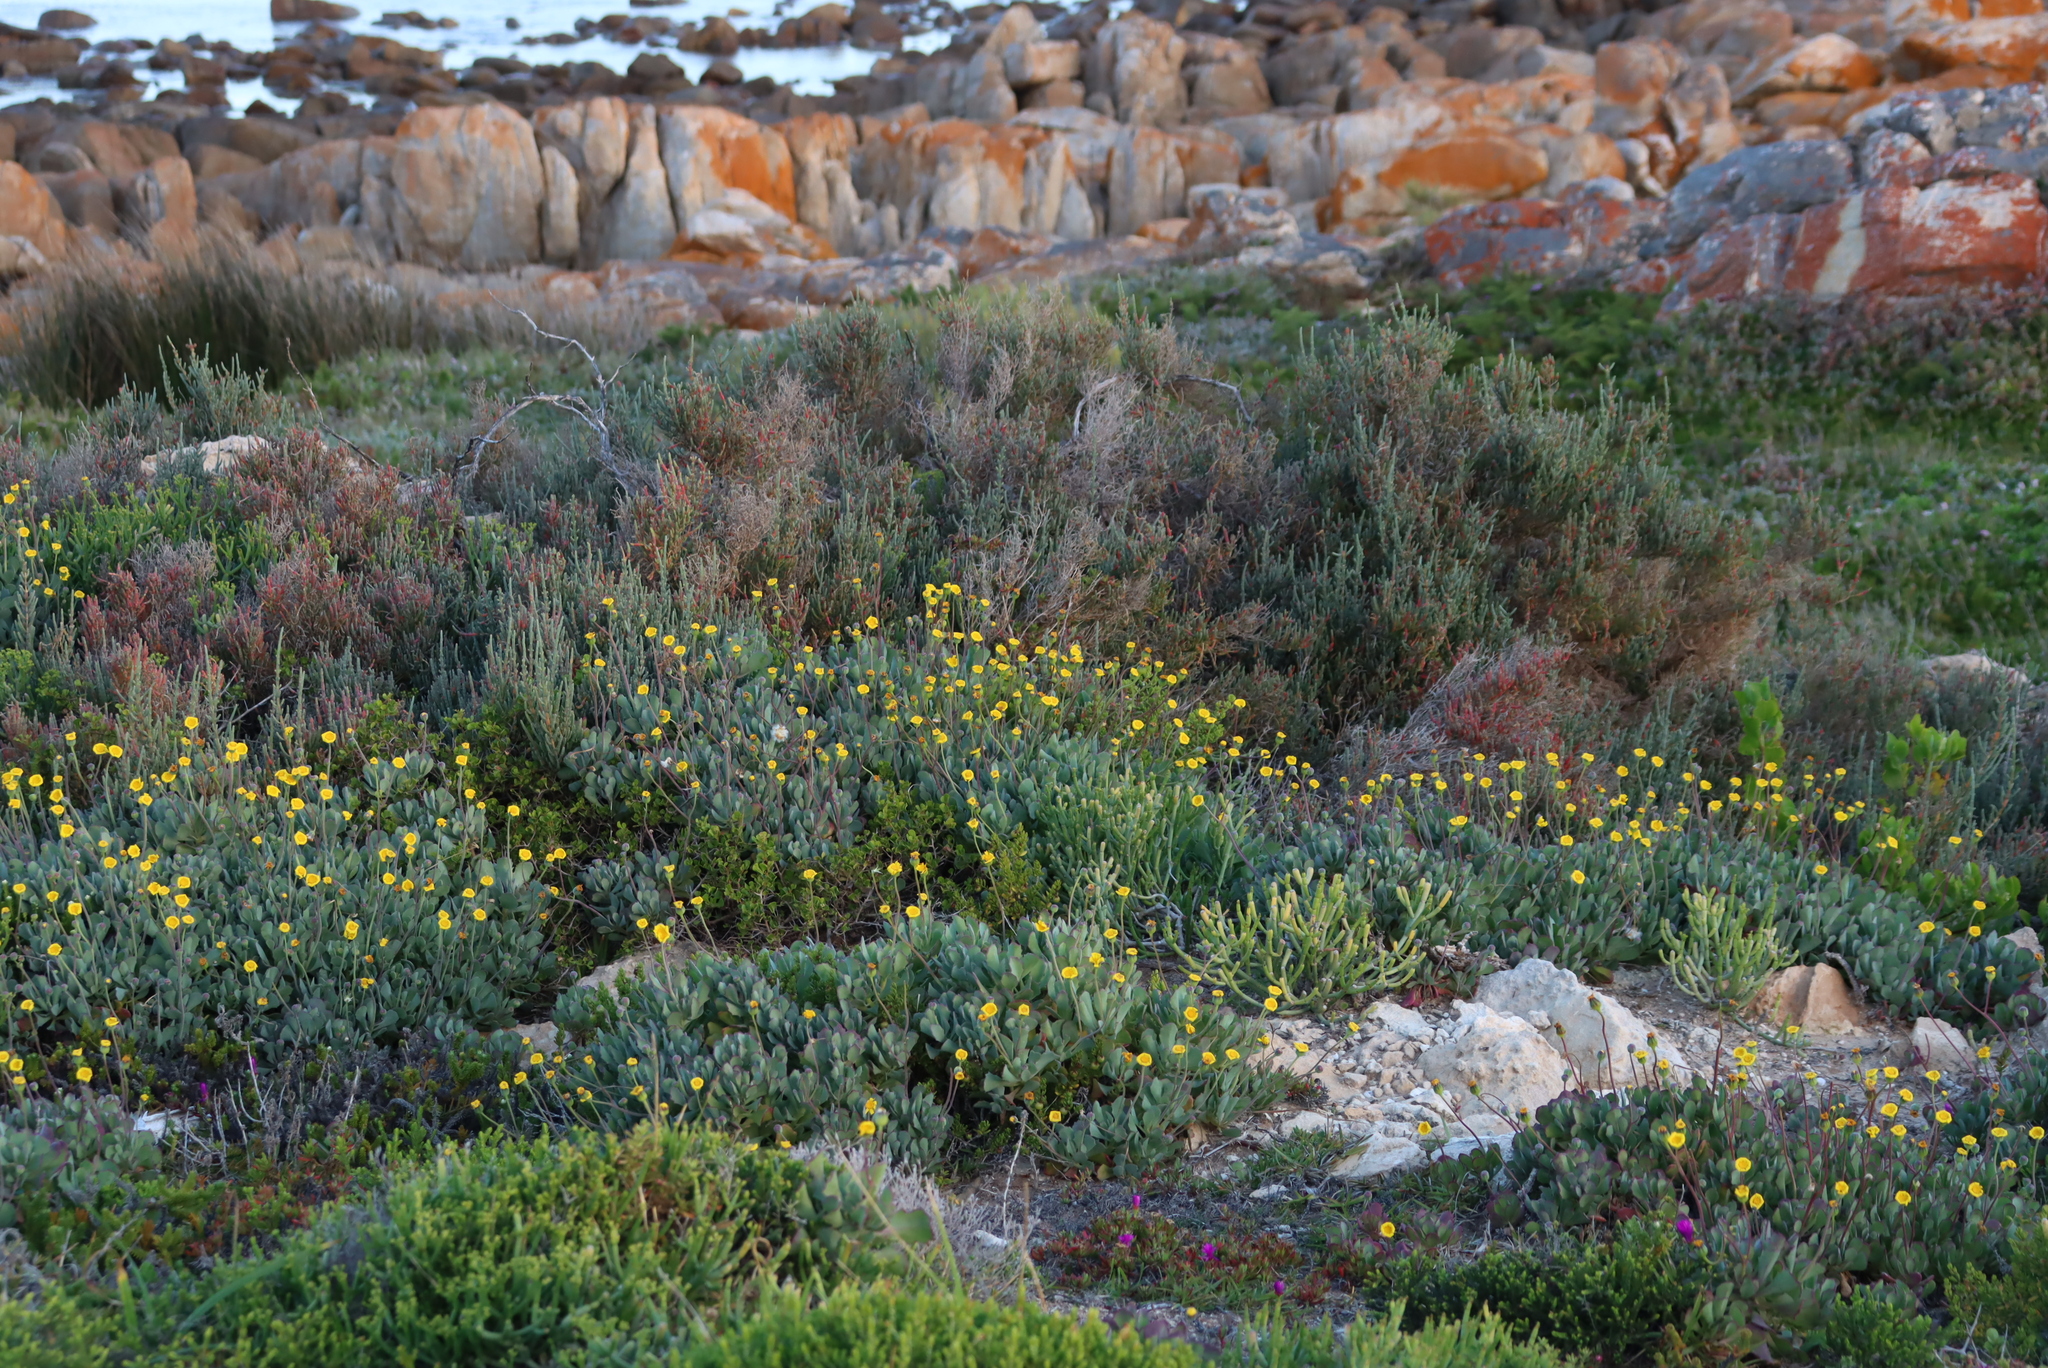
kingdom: Plantae
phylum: Tracheophyta
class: Magnoliopsida
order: Asterales
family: Asteraceae
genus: Othonna
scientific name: Othonna
